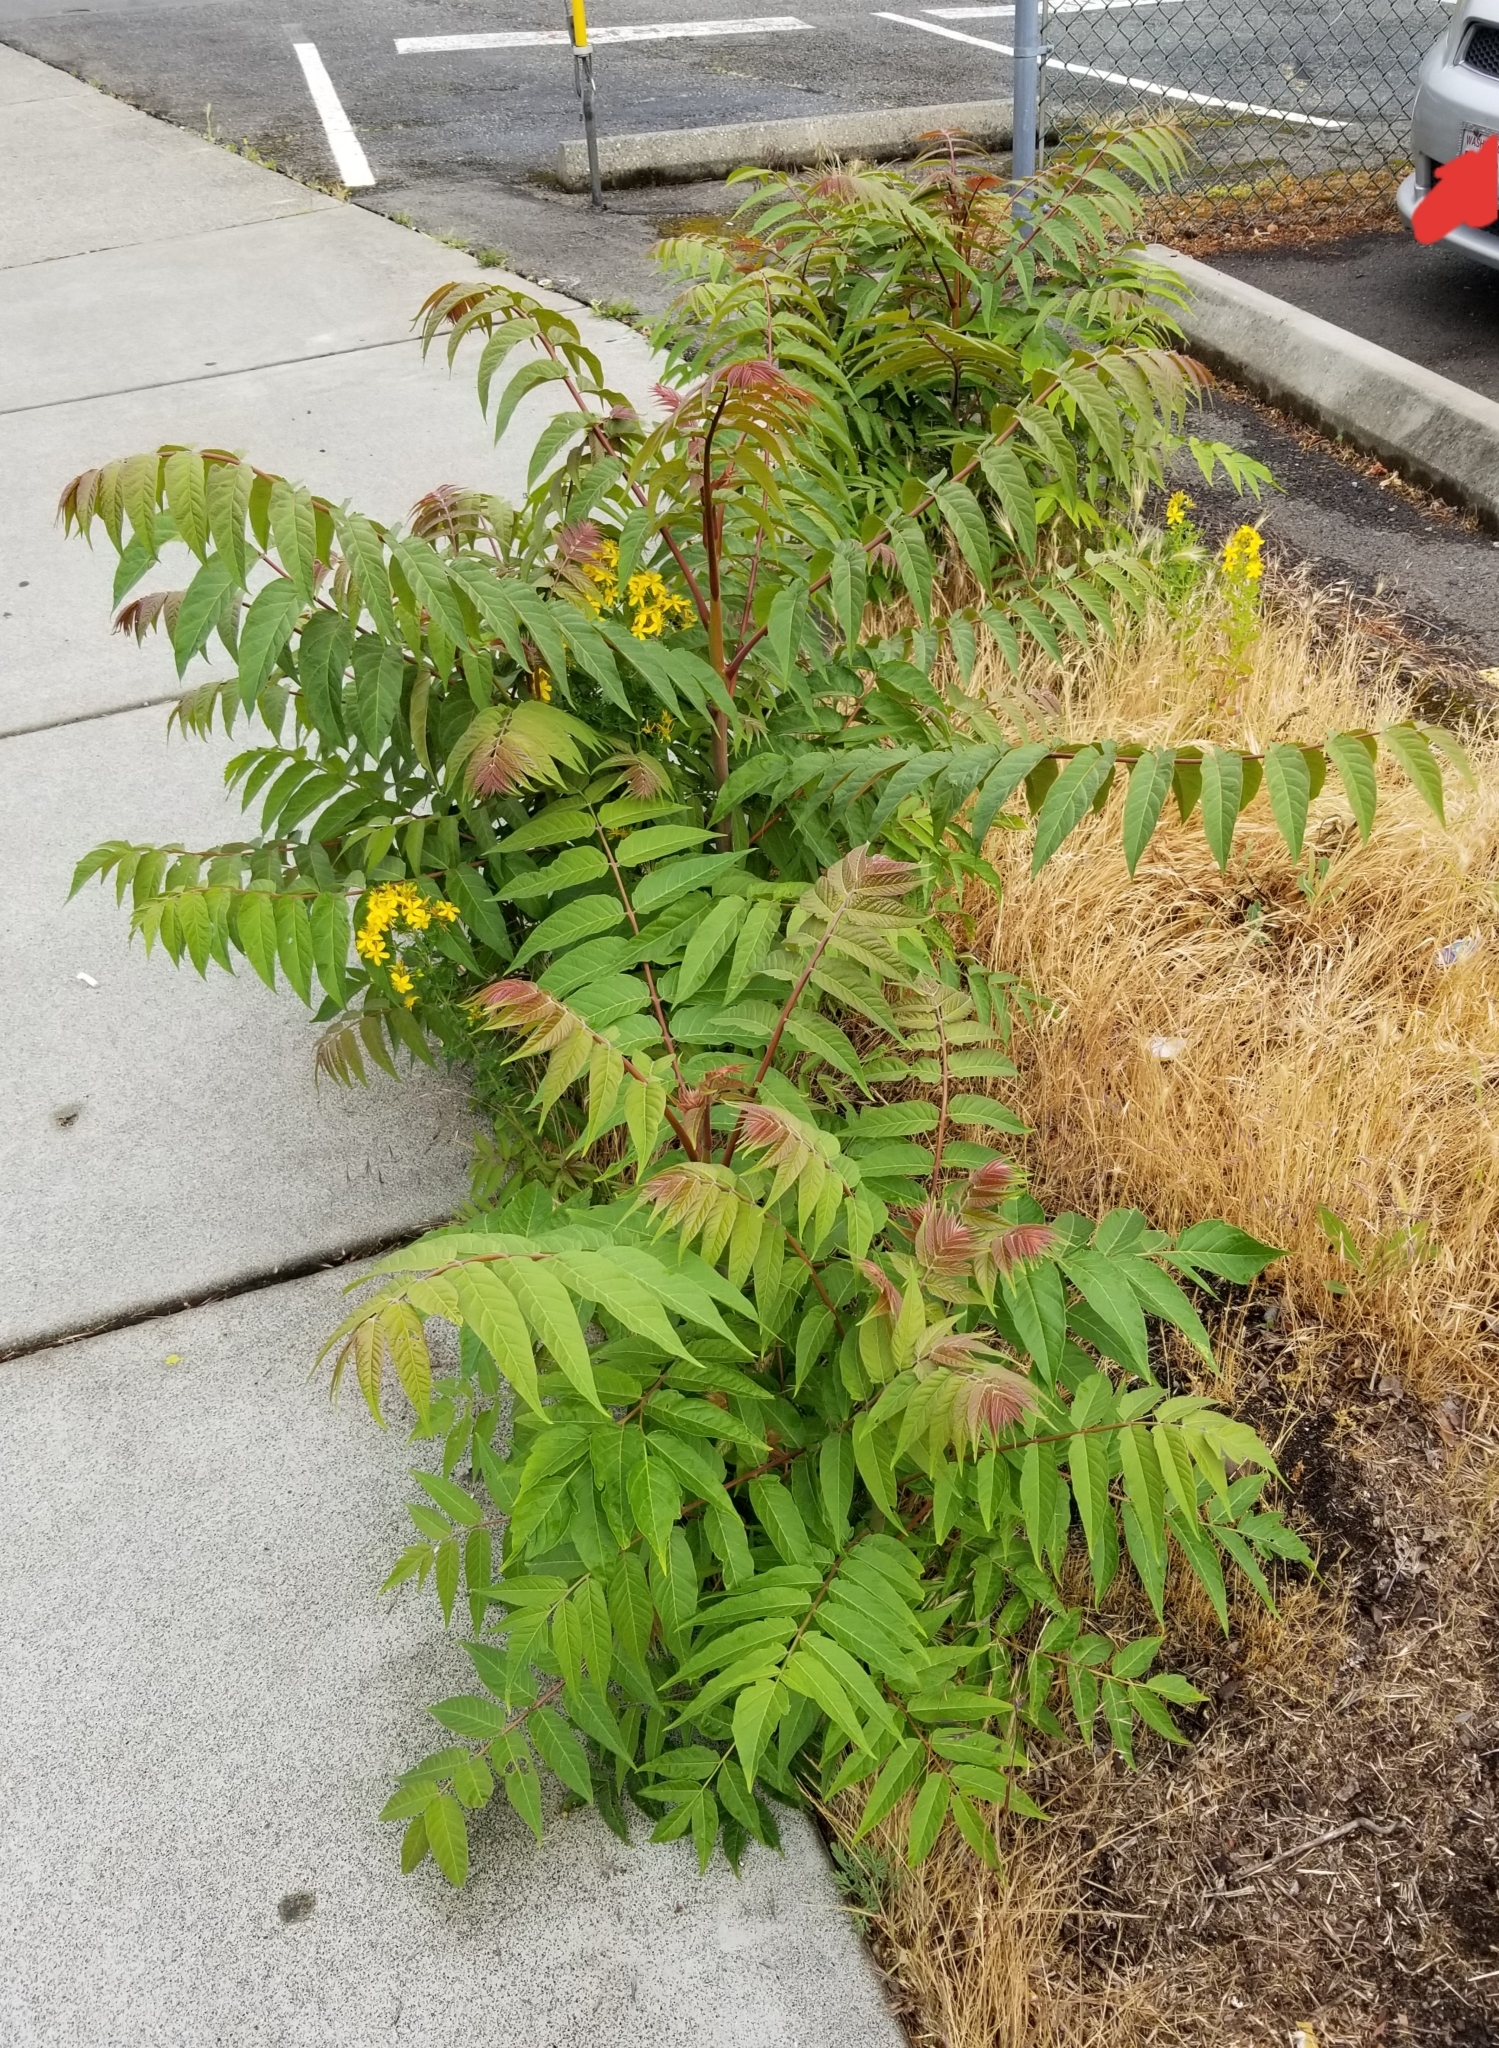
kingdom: Plantae
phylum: Tracheophyta
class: Magnoliopsida
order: Sapindales
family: Simaroubaceae
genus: Ailanthus
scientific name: Ailanthus altissima
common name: Tree-of-heaven
